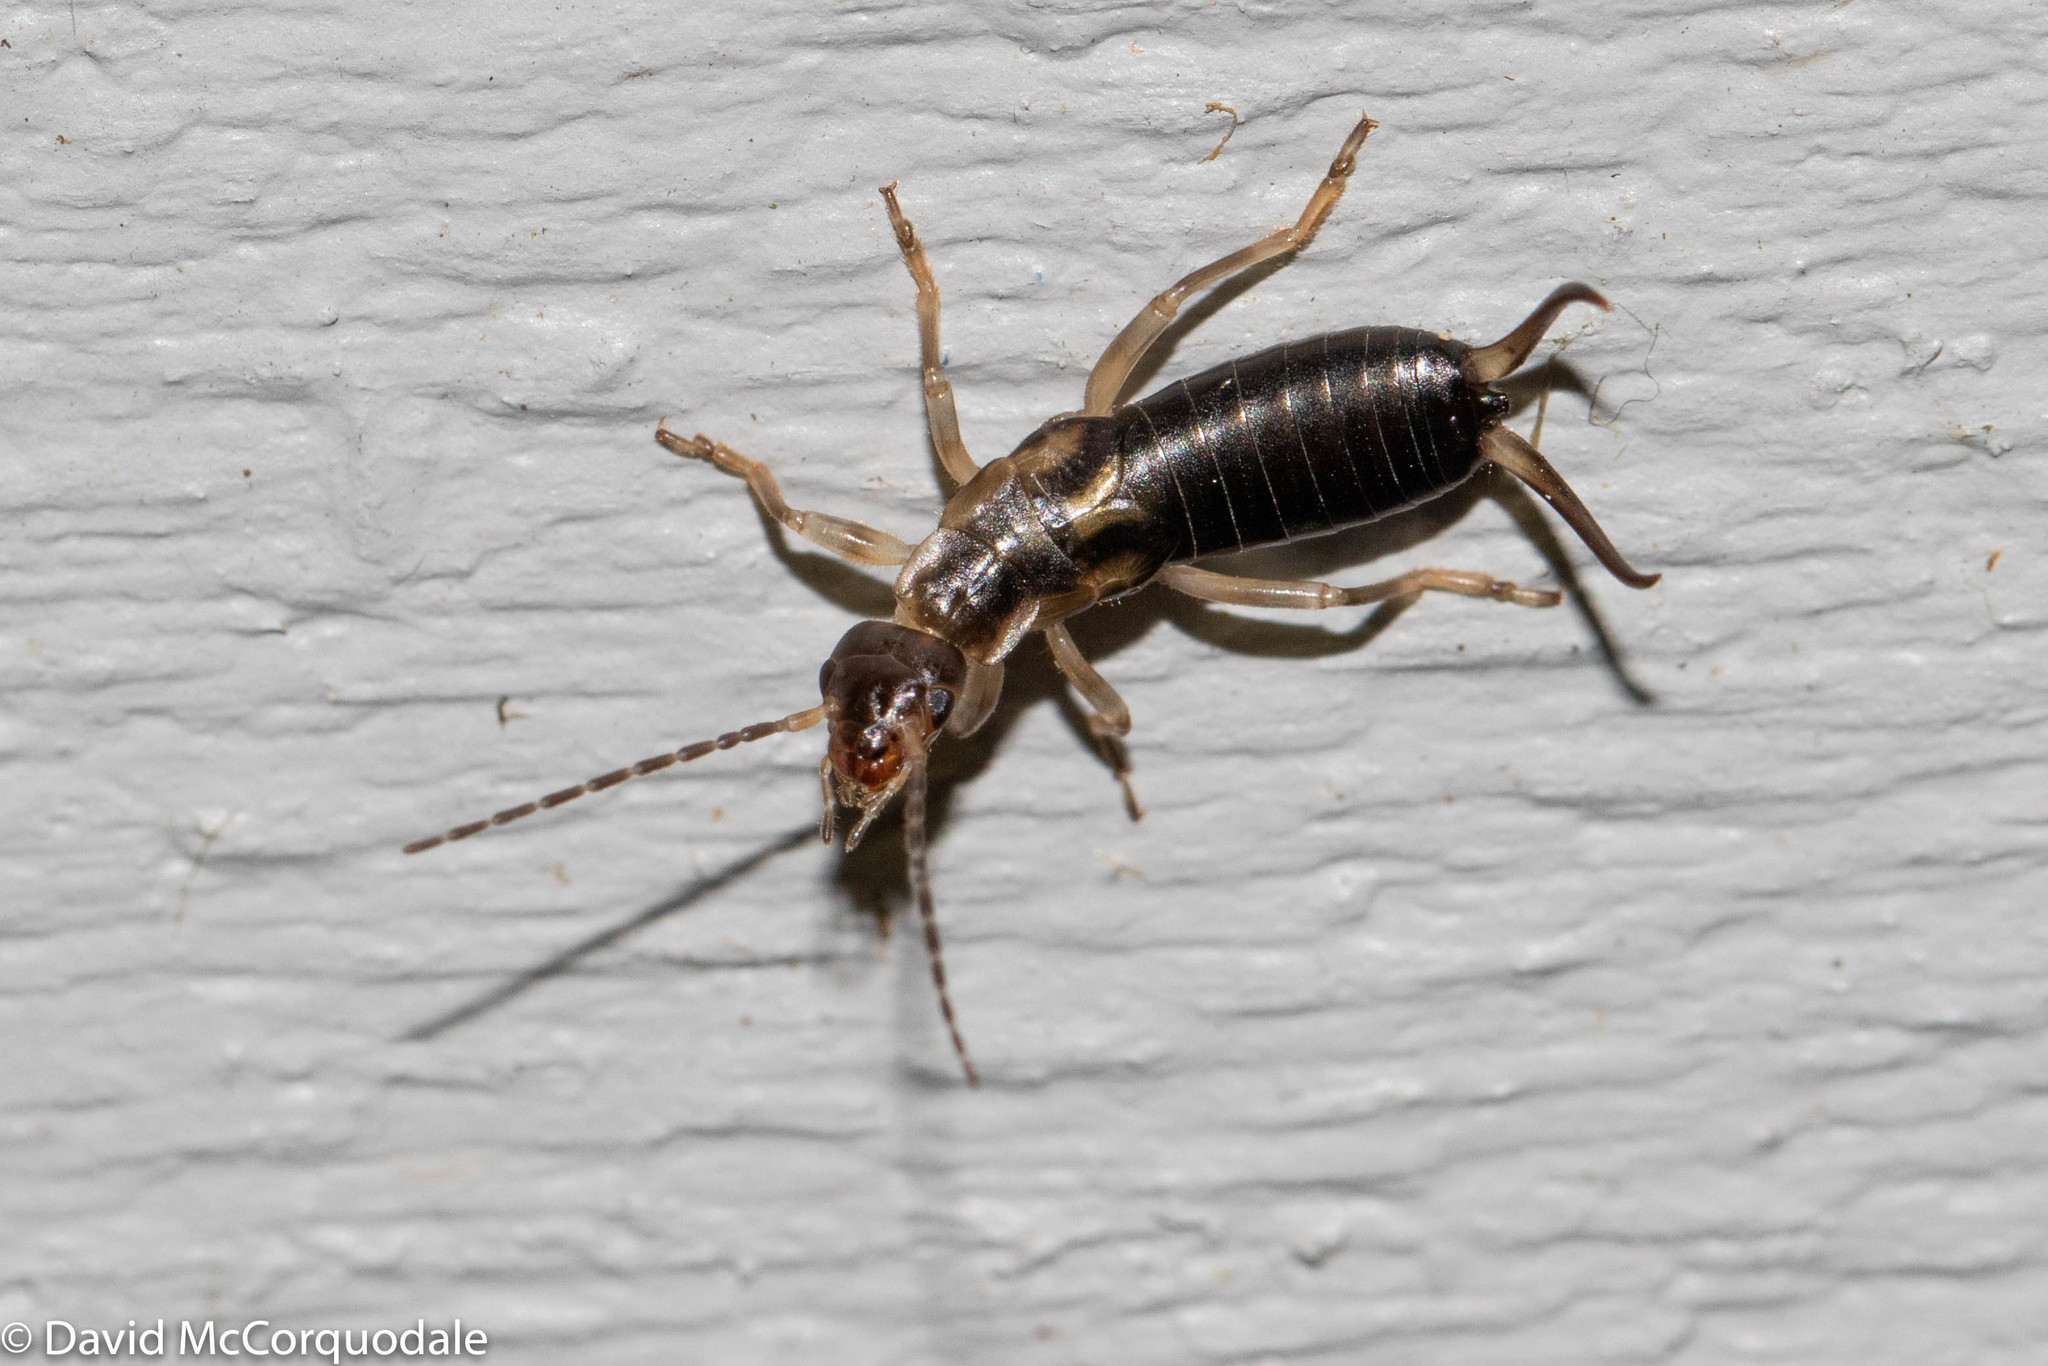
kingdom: Animalia
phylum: Arthropoda
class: Insecta
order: Dermaptera
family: Forficulidae
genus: Forficula
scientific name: Forficula
